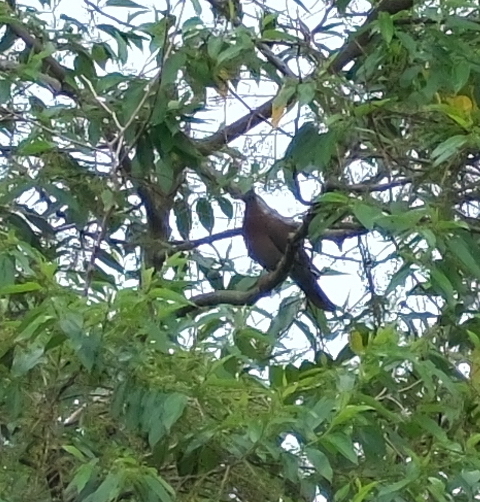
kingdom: Animalia
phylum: Chordata
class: Aves
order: Columbiformes
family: Columbidae
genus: Patagioenas
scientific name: Patagioenas cayennensis
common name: Pale-vented pigeon
